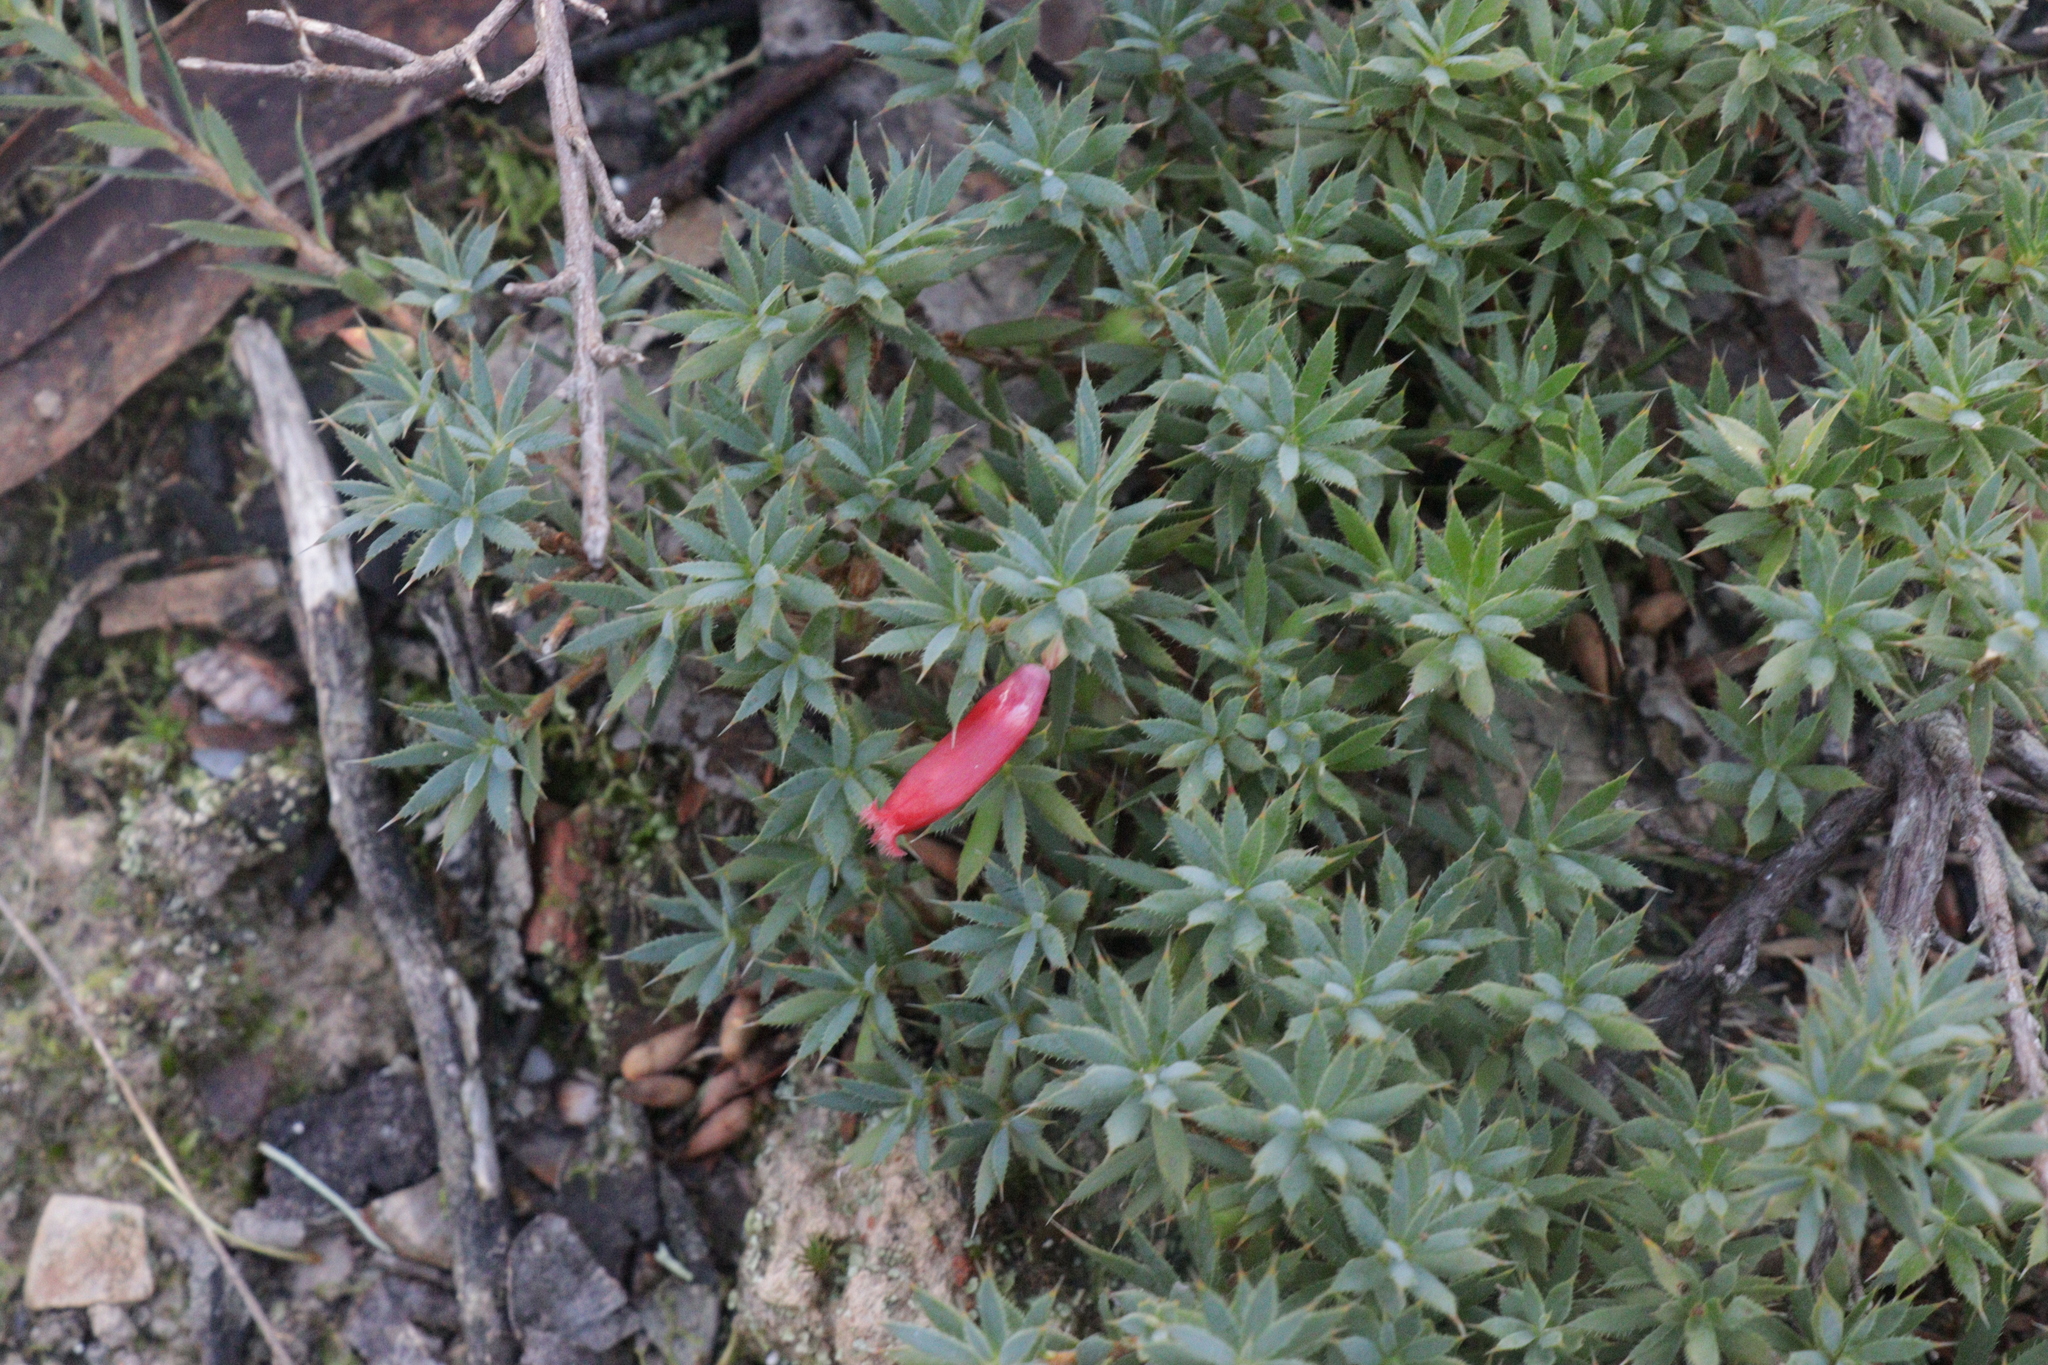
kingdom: Plantae
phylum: Tracheophyta
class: Magnoliopsida
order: Ericales
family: Ericaceae
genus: Styphelia
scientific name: Styphelia humifusa
